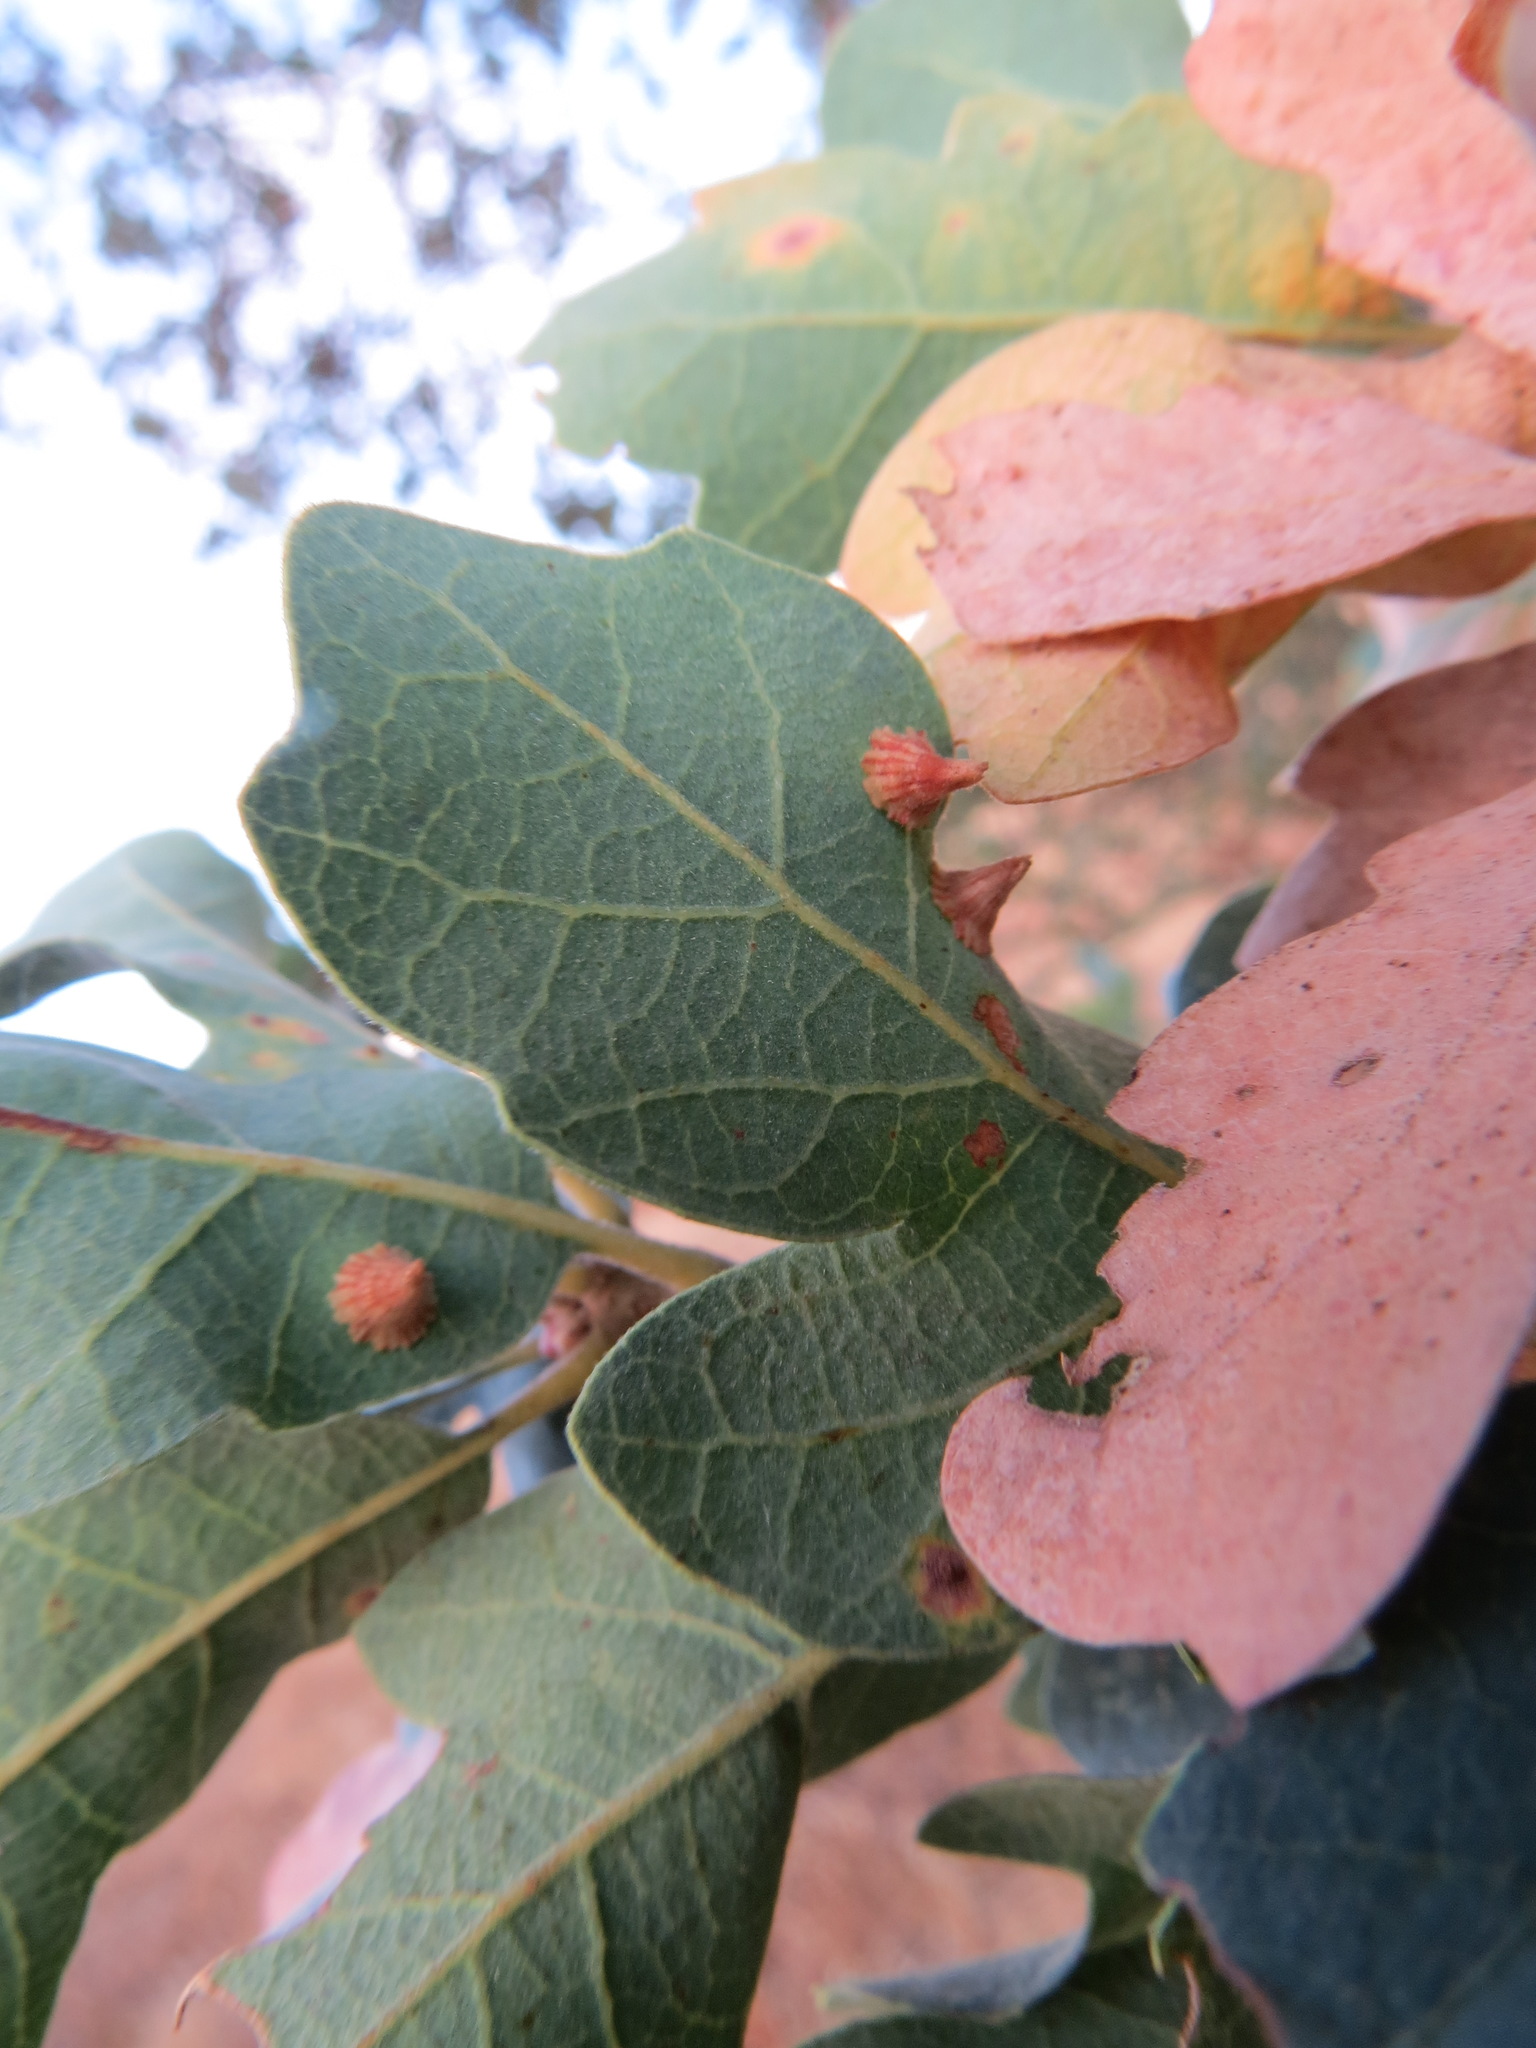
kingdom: Animalia
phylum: Arthropoda
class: Insecta
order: Hymenoptera
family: Cynipidae
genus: Andricus
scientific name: Andricus
